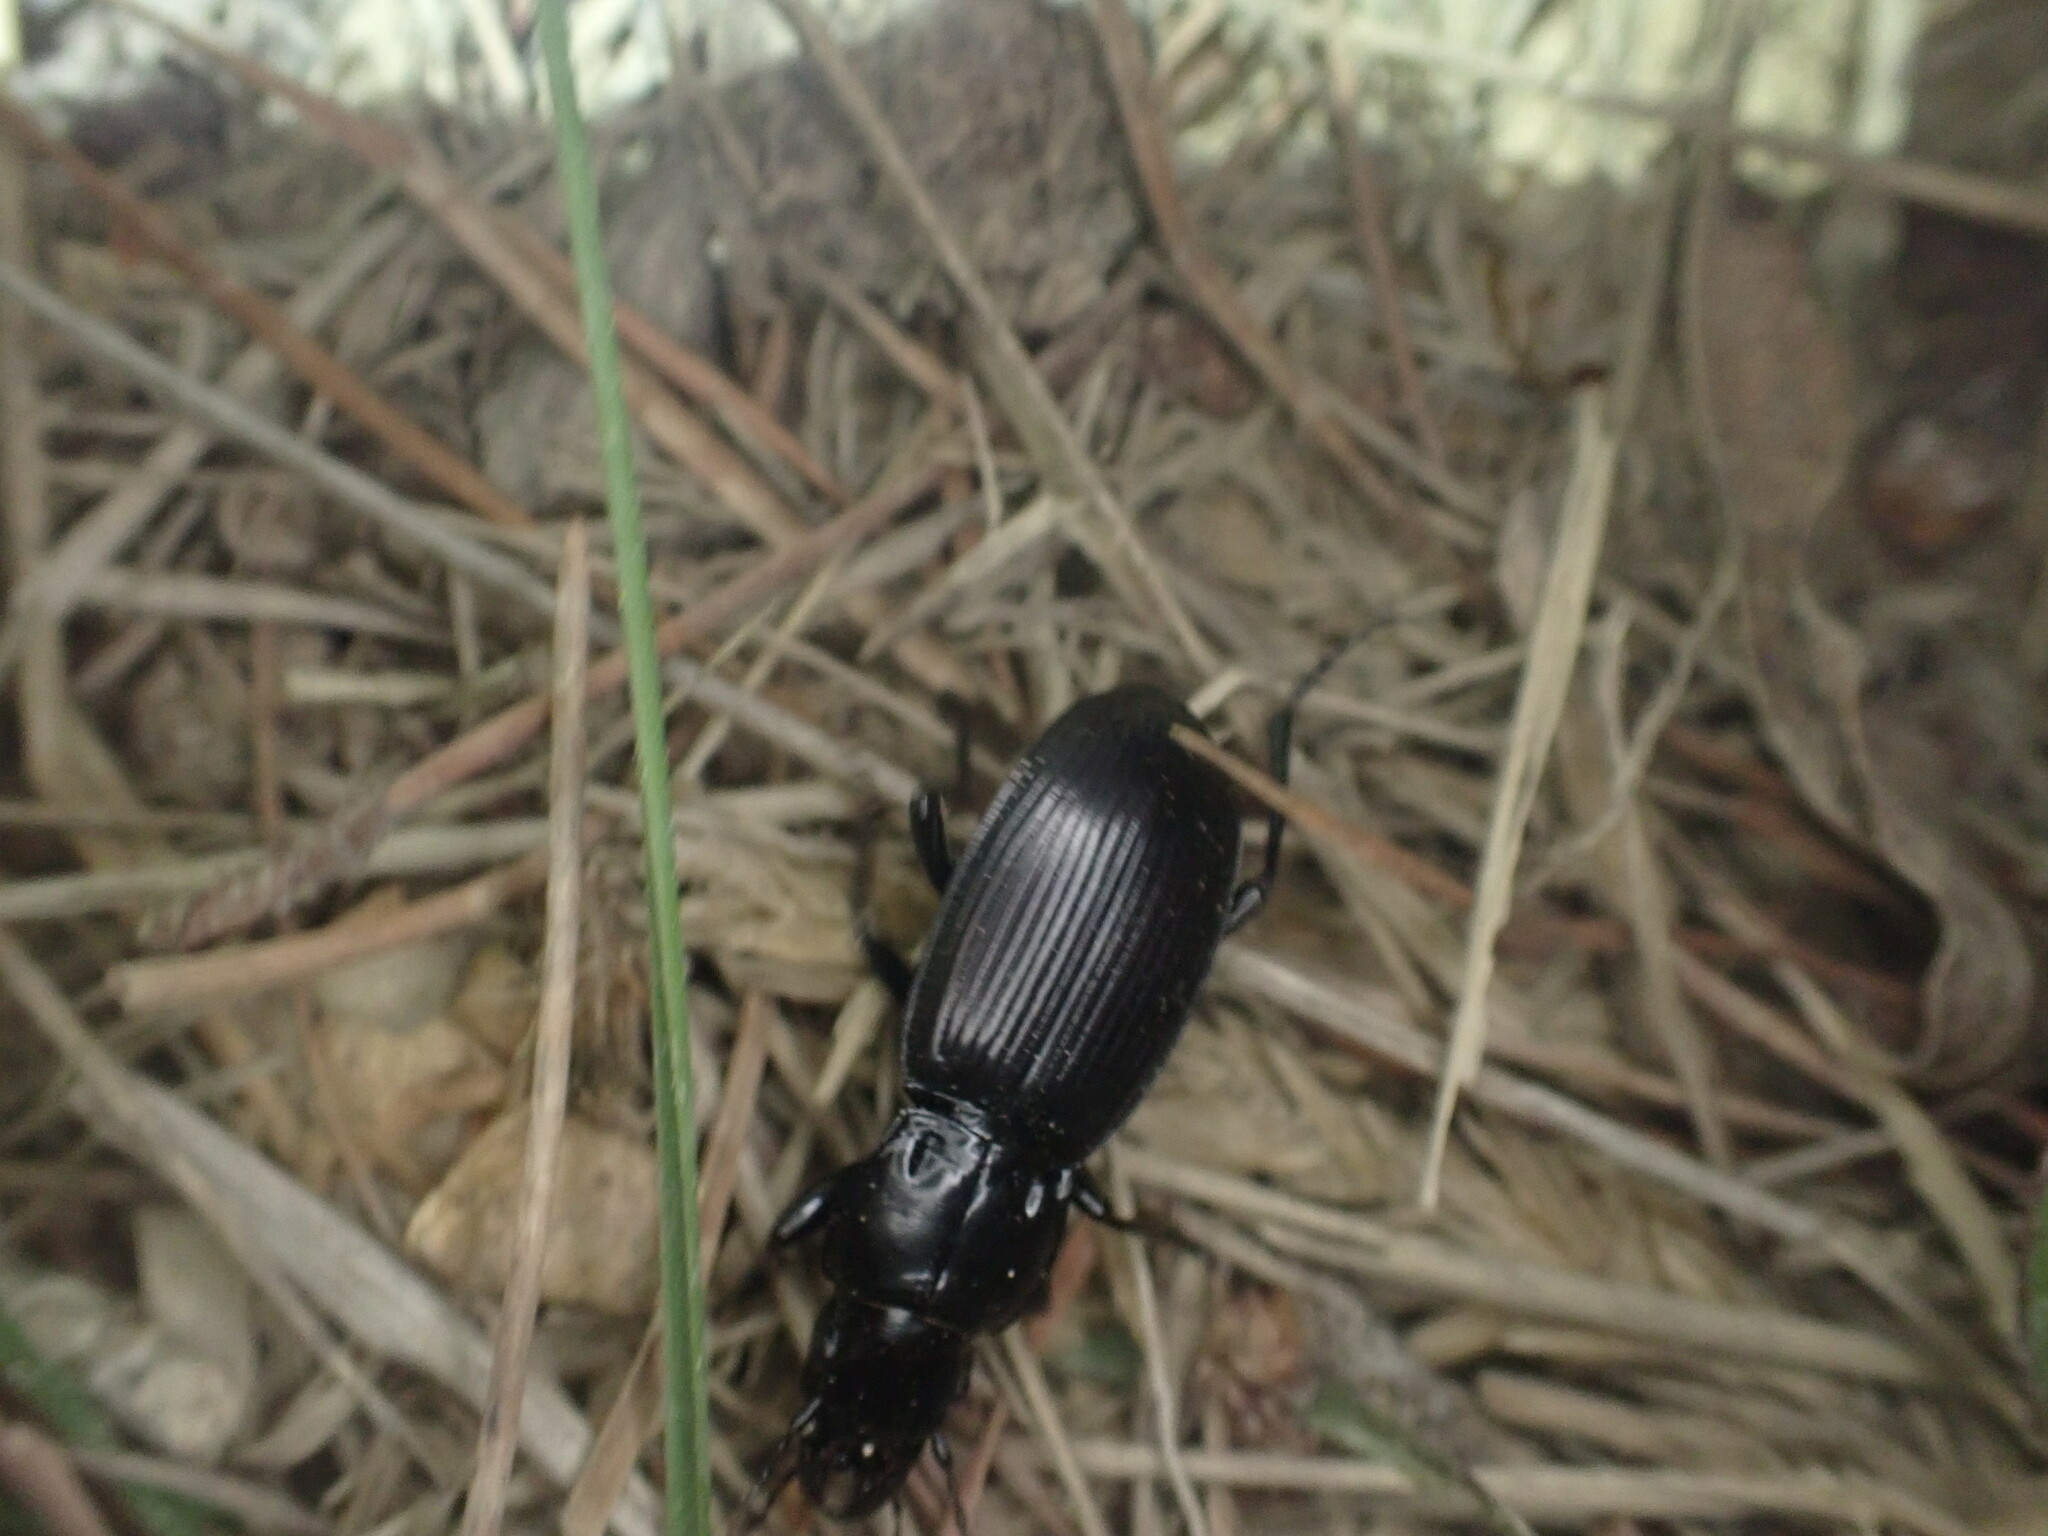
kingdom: Animalia
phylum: Arthropoda
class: Insecta
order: Coleoptera
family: Carabidae
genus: Megadromus
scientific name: Megadromus capito
